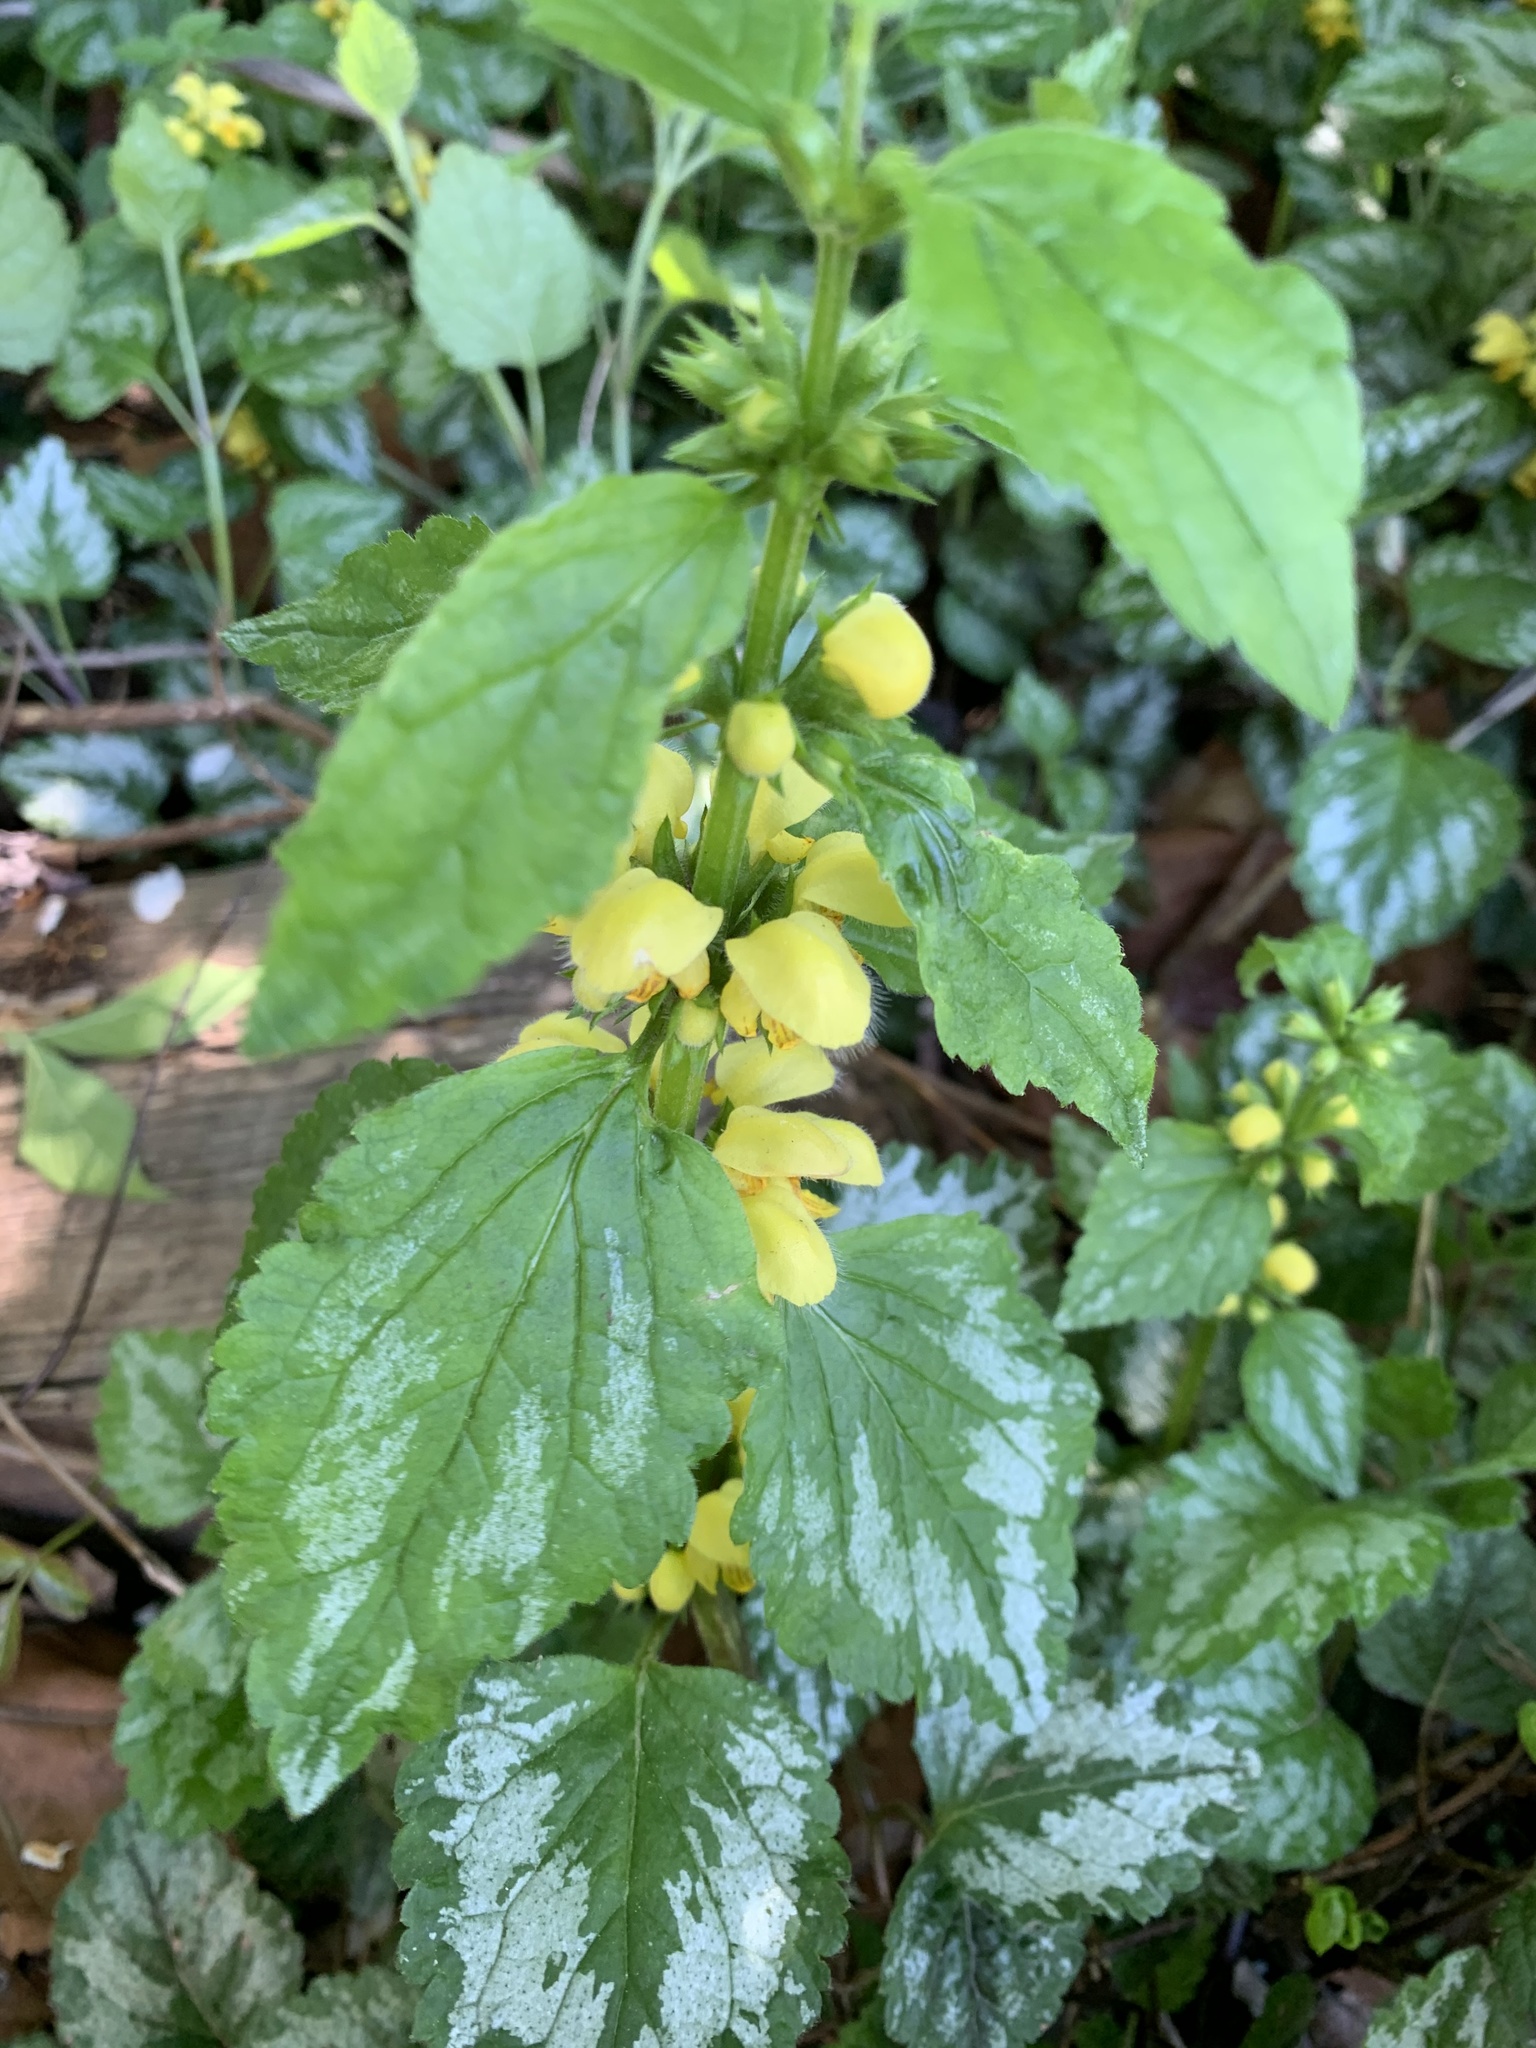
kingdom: Plantae
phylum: Tracheophyta
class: Magnoliopsida
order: Lamiales
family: Lamiaceae
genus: Lamium
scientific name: Lamium galeobdolon
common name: Yellow archangel
